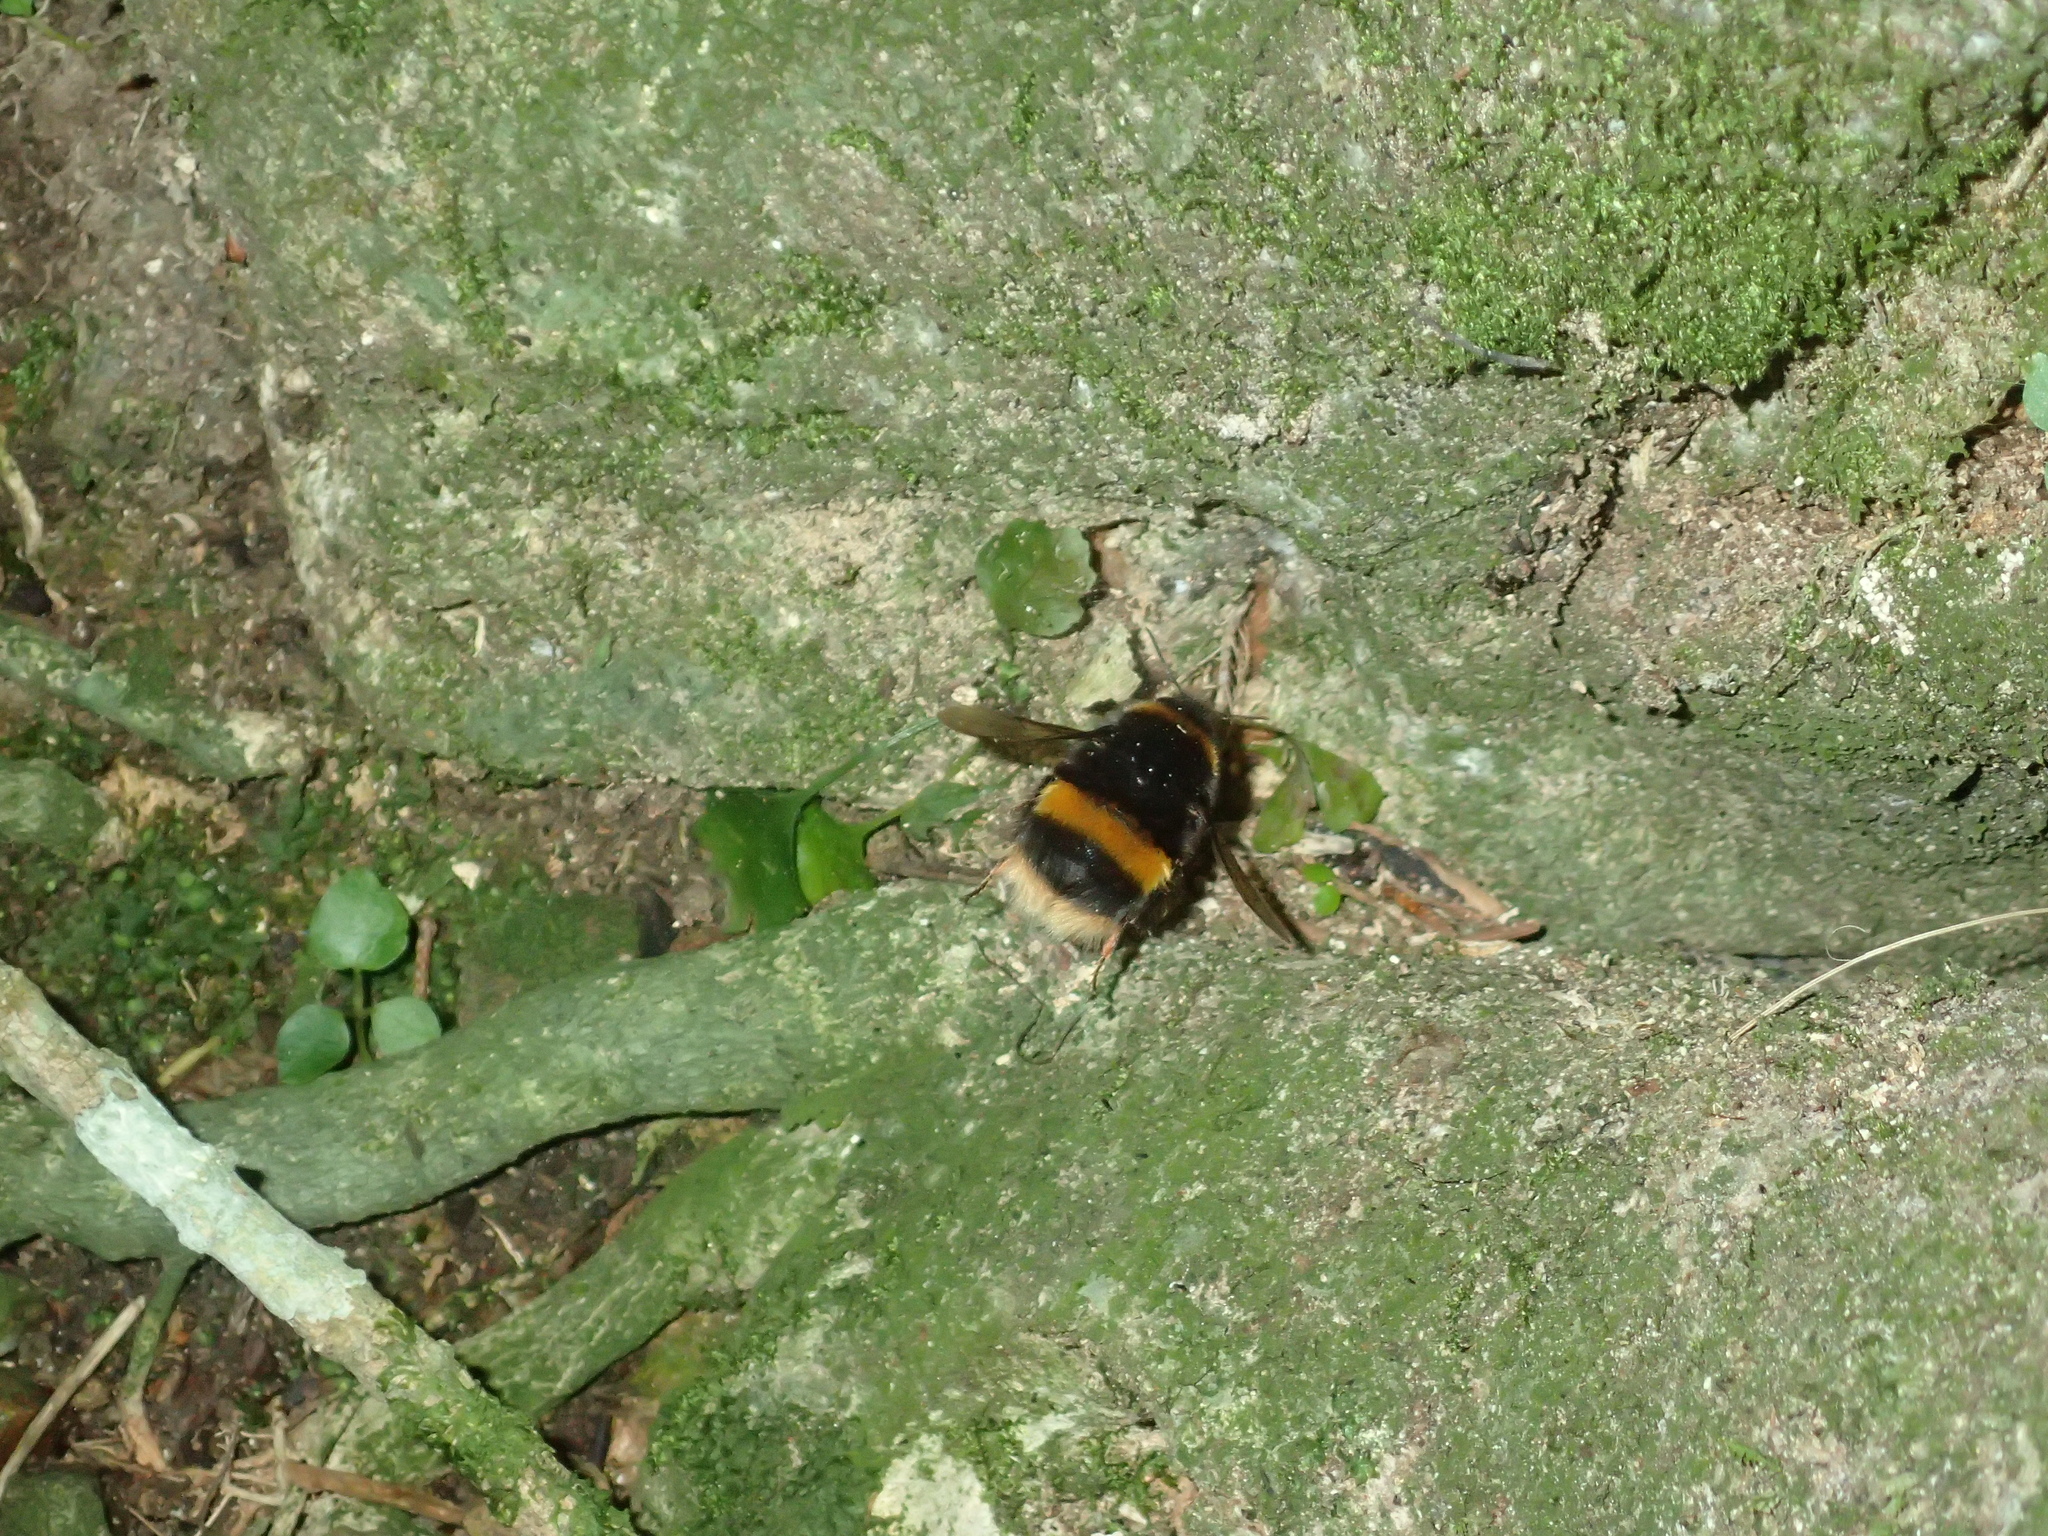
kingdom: Animalia
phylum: Arthropoda
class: Insecta
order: Hymenoptera
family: Apidae
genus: Bombus
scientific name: Bombus terrestris
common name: Buff-tailed bumblebee
